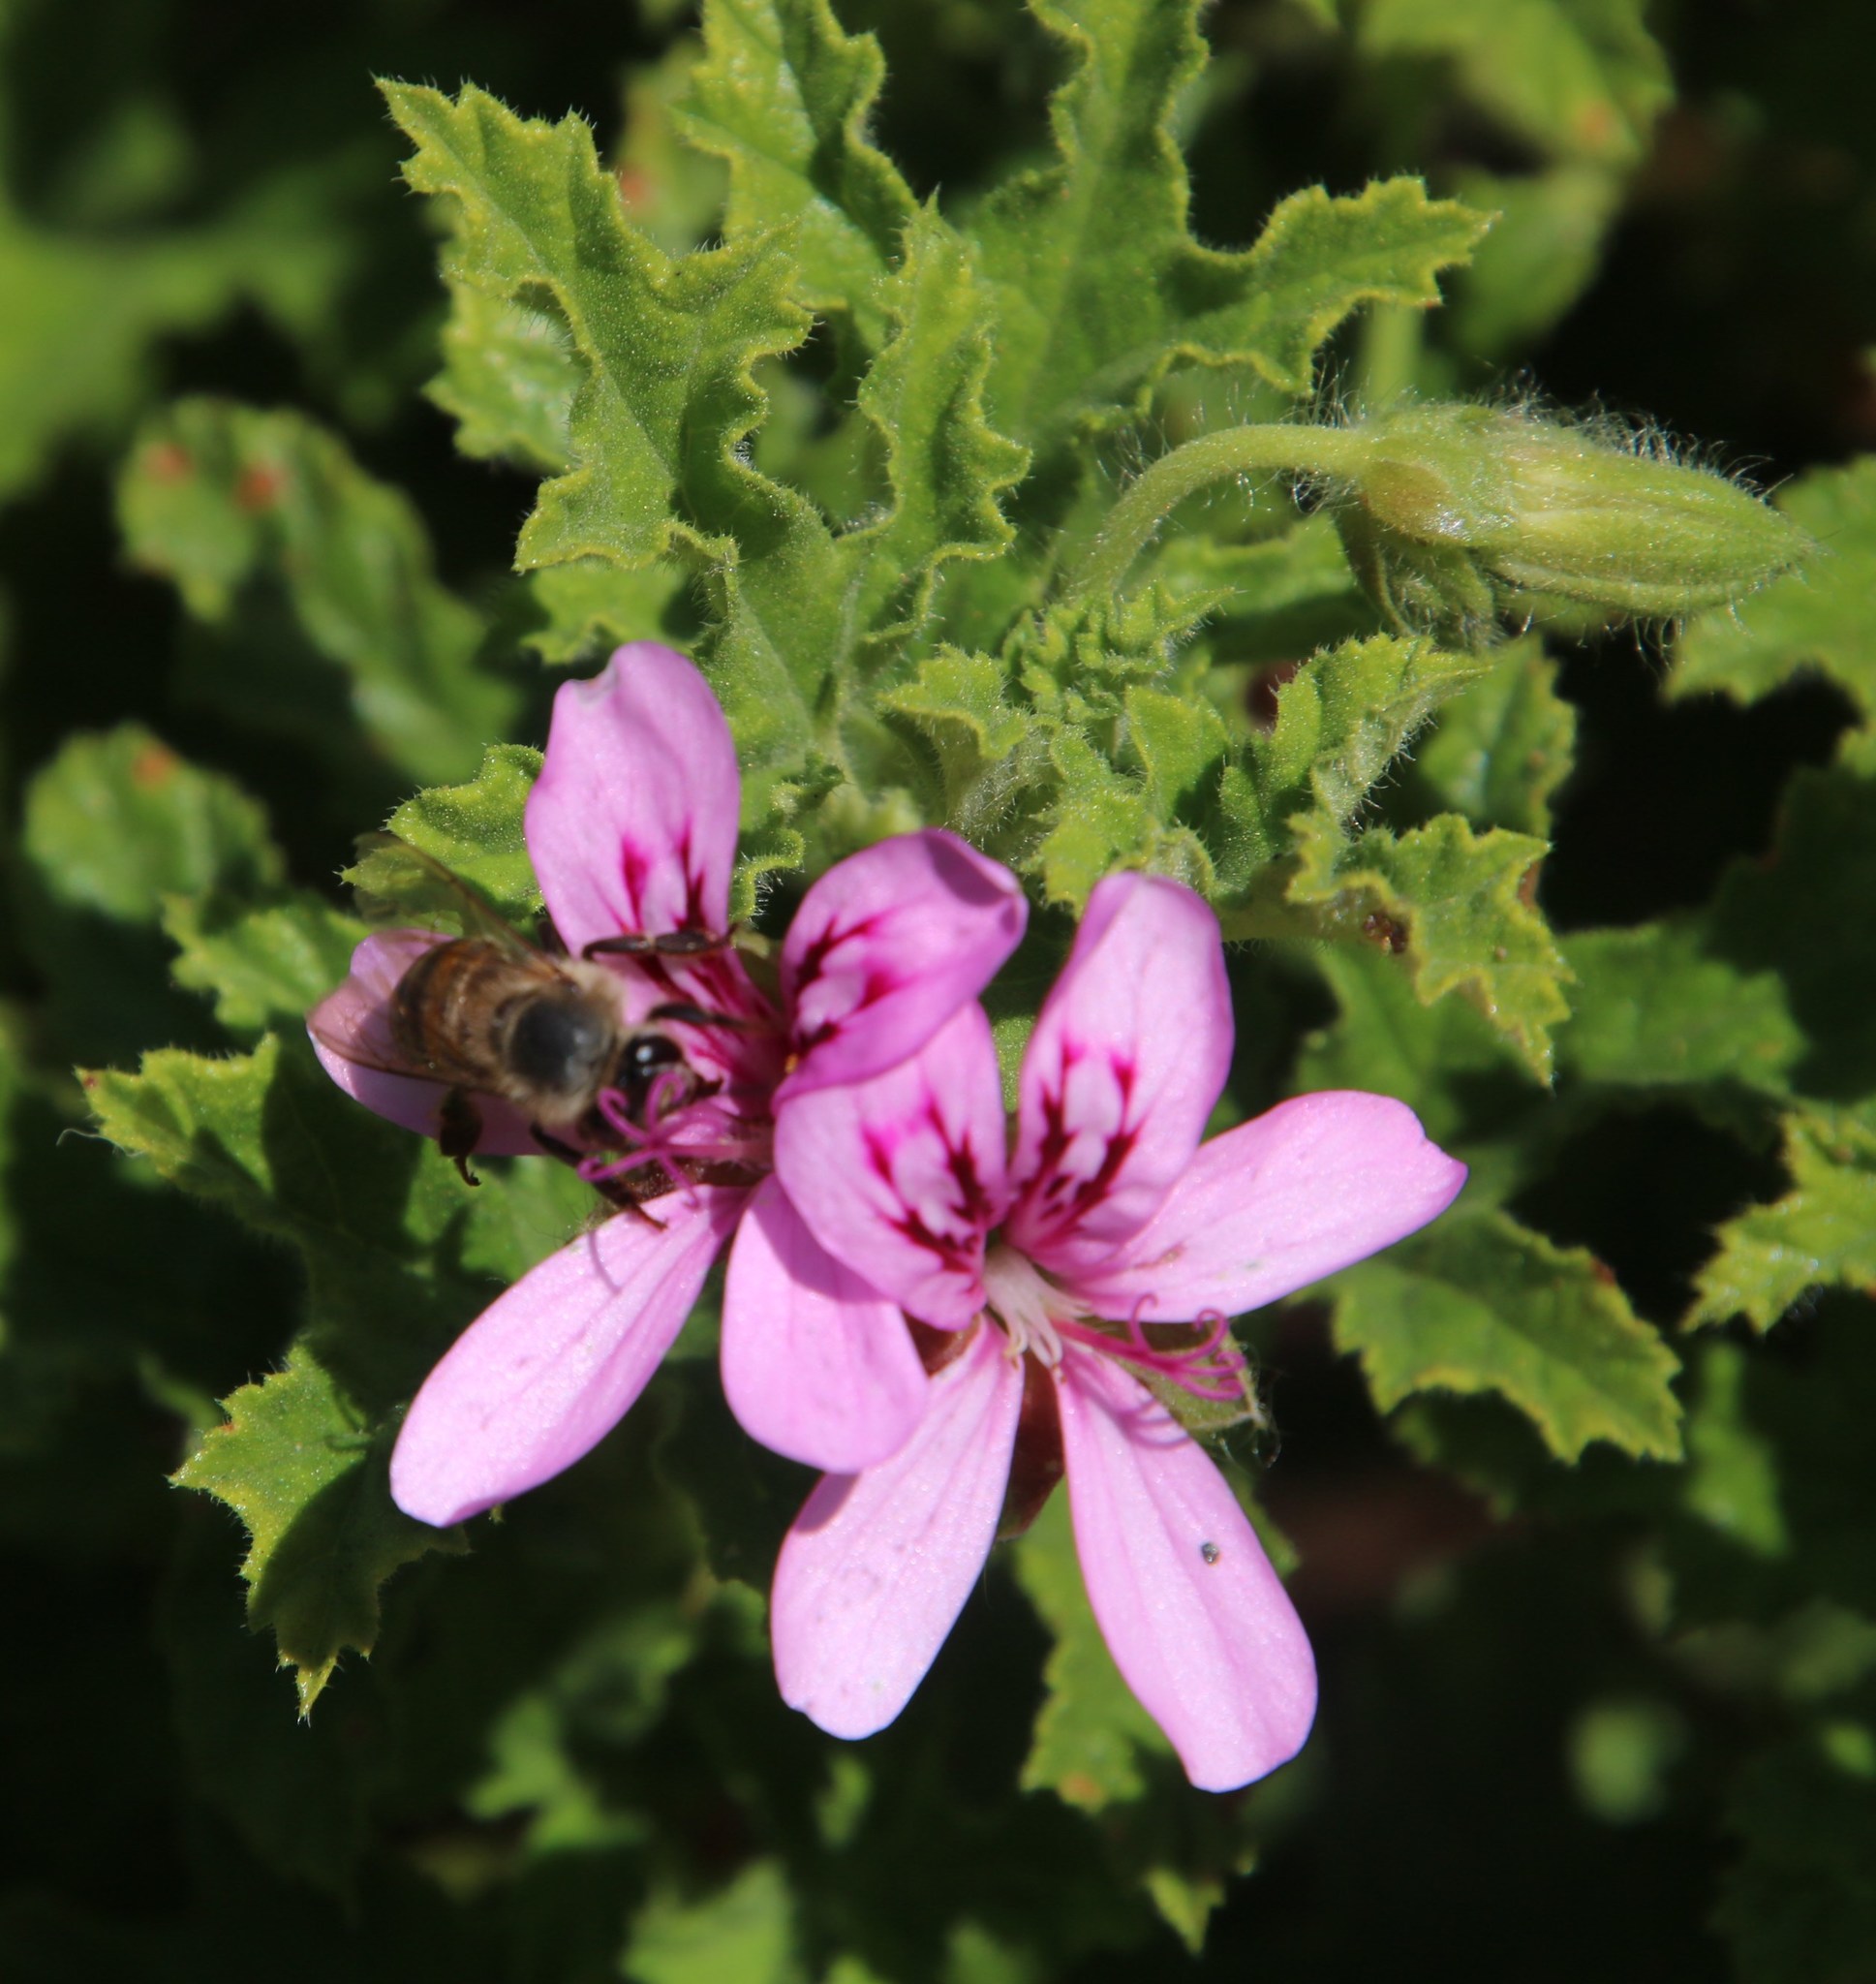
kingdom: Animalia
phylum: Arthropoda
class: Insecta
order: Hymenoptera
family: Apidae
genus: Apis
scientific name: Apis mellifera
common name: Honey bee
